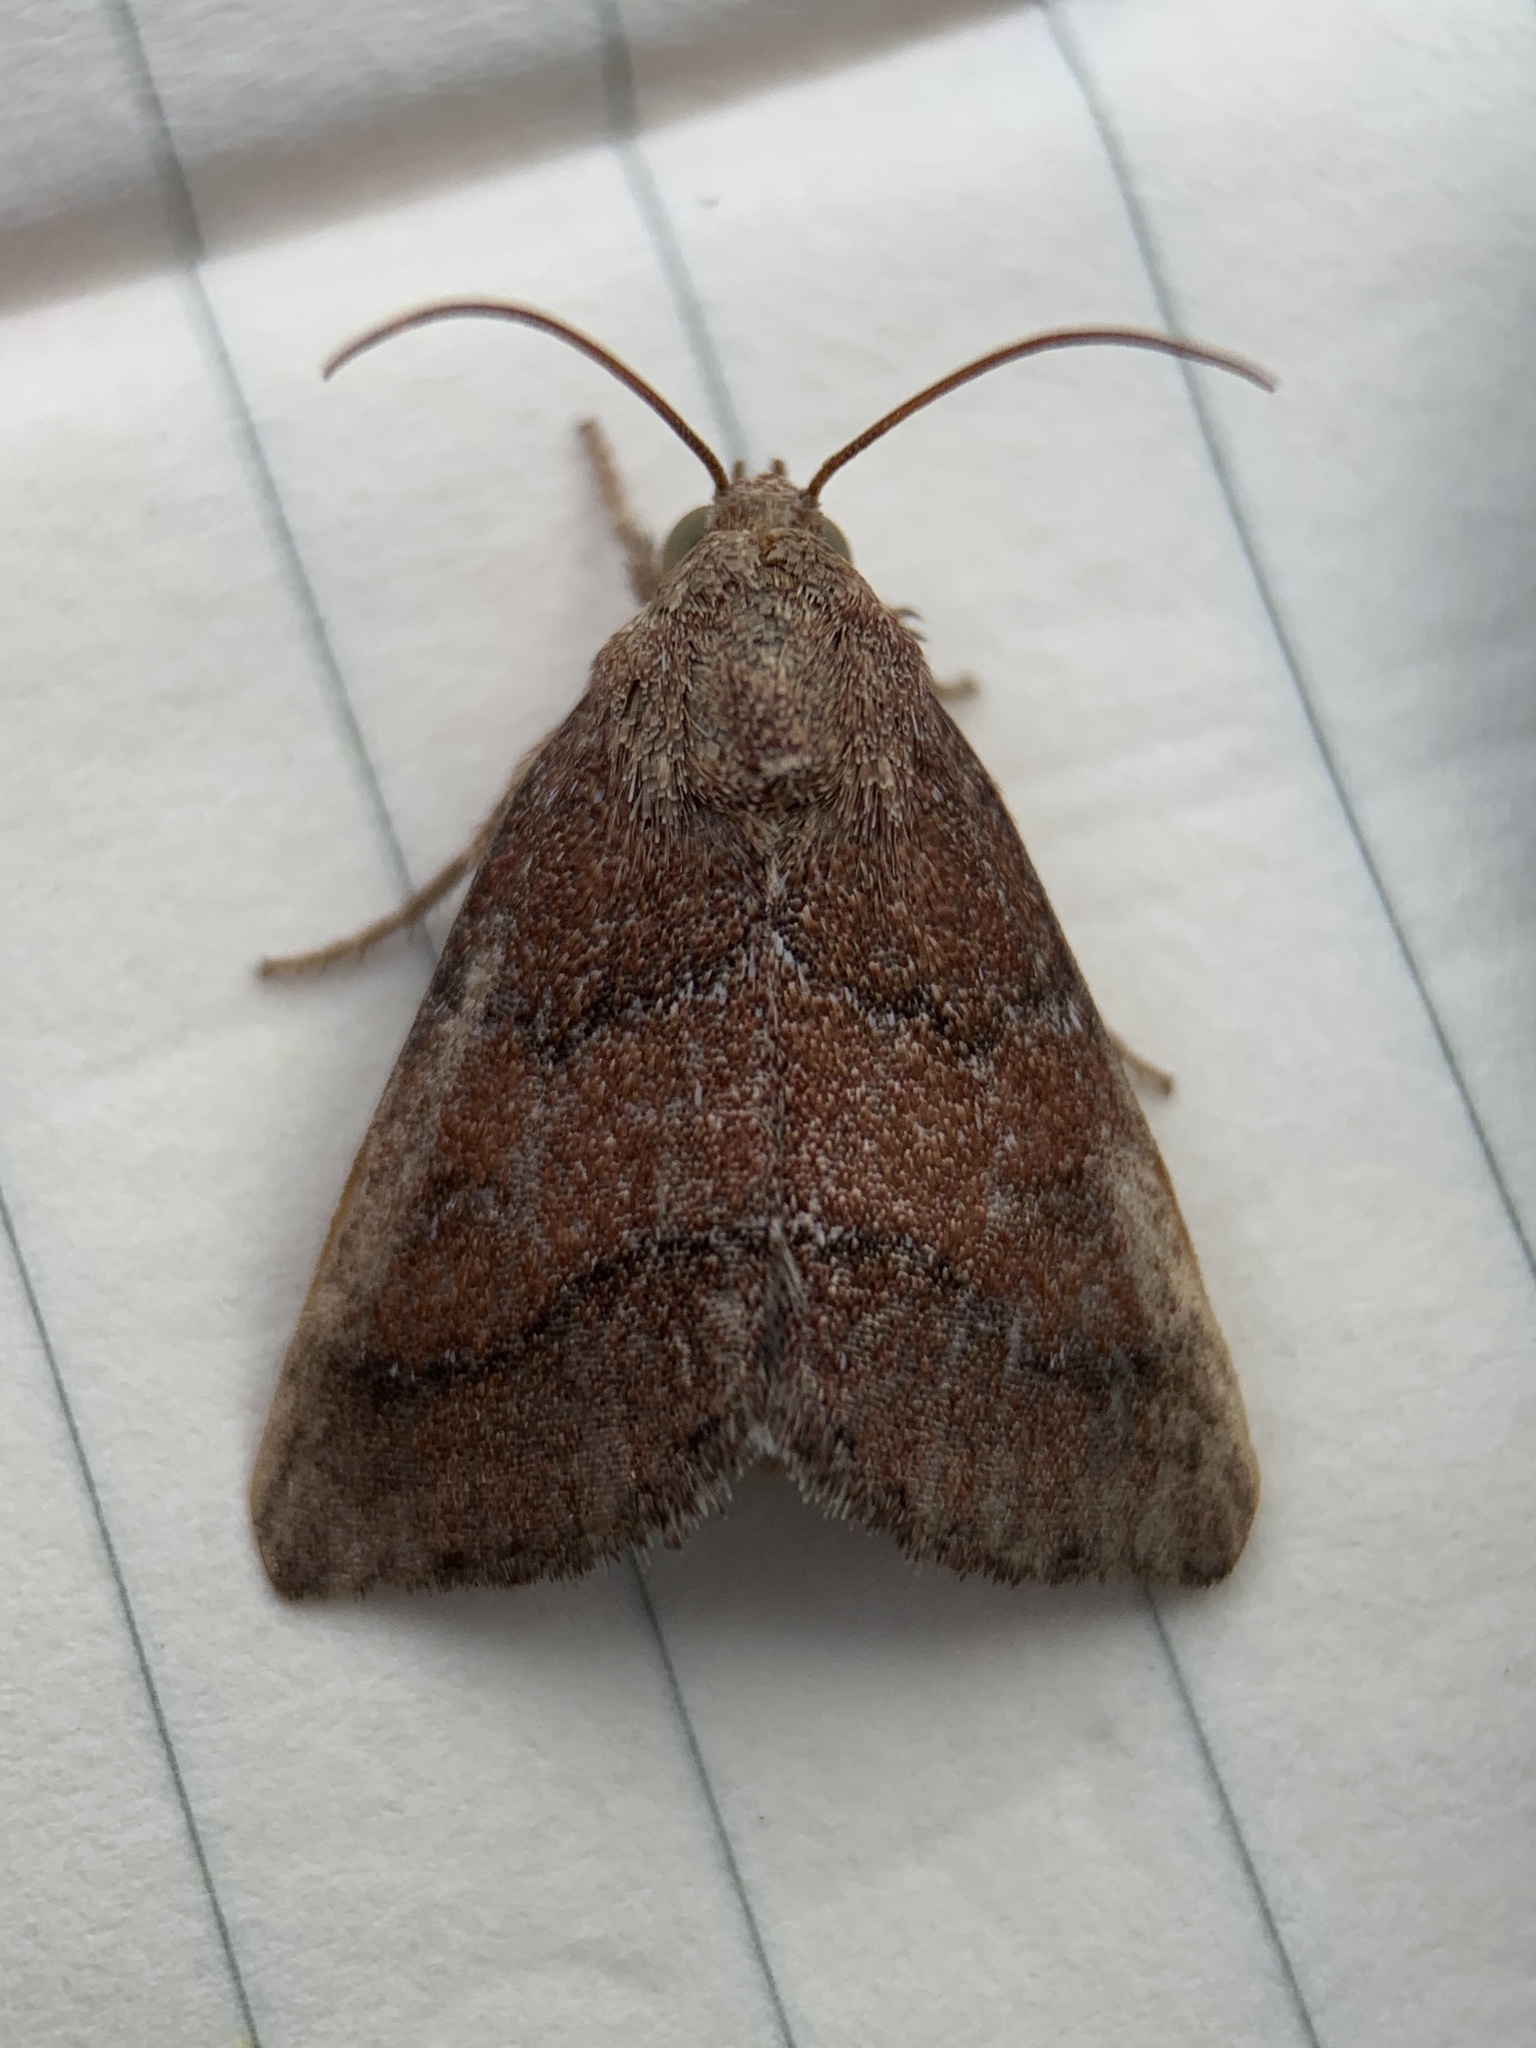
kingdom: Animalia
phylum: Arthropoda
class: Insecta
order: Lepidoptera
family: Noctuidae
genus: Schinia
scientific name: Schinia saturata
